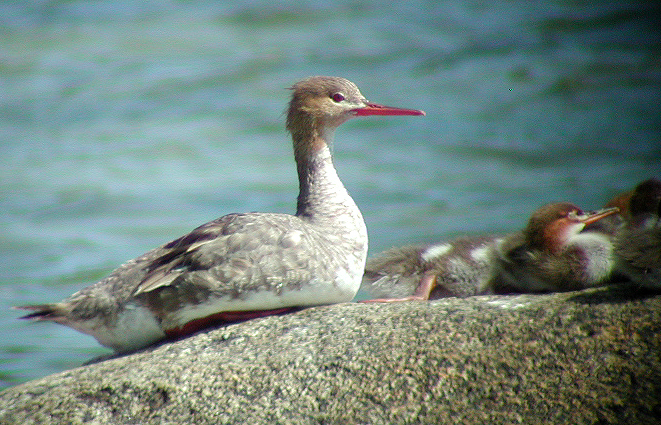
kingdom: Animalia
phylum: Chordata
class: Aves
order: Anseriformes
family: Anatidae
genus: Mergus
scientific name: Mergus serrator
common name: Red-breasted merganser
